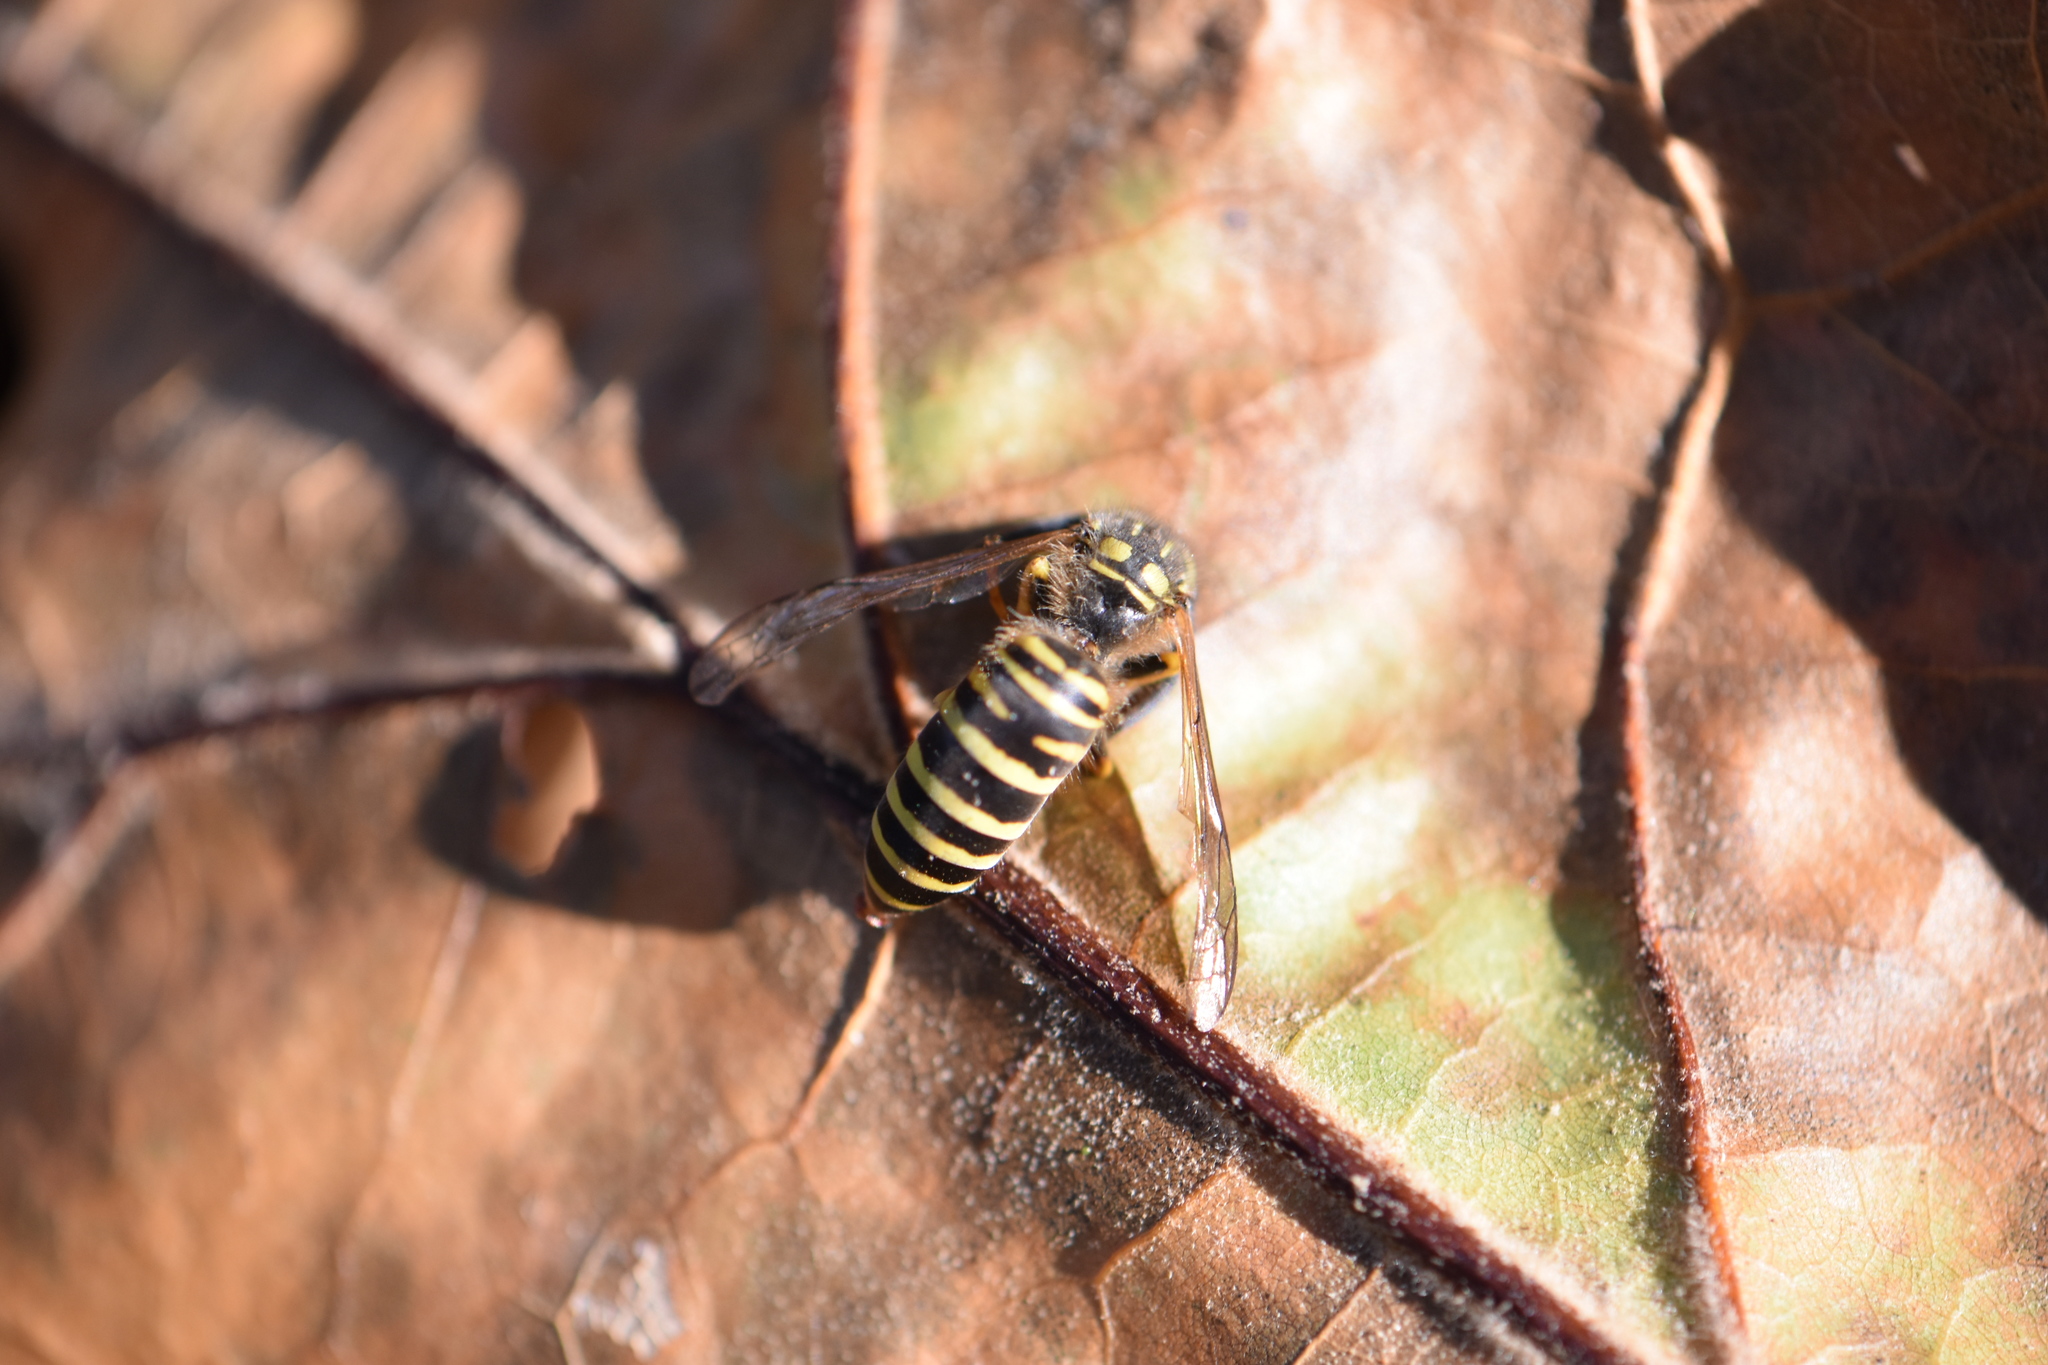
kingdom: Animalia
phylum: Arthropoda
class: Insecta
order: Hymenoptera
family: Vespidae
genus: Vespula
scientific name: Vespula squamosa
